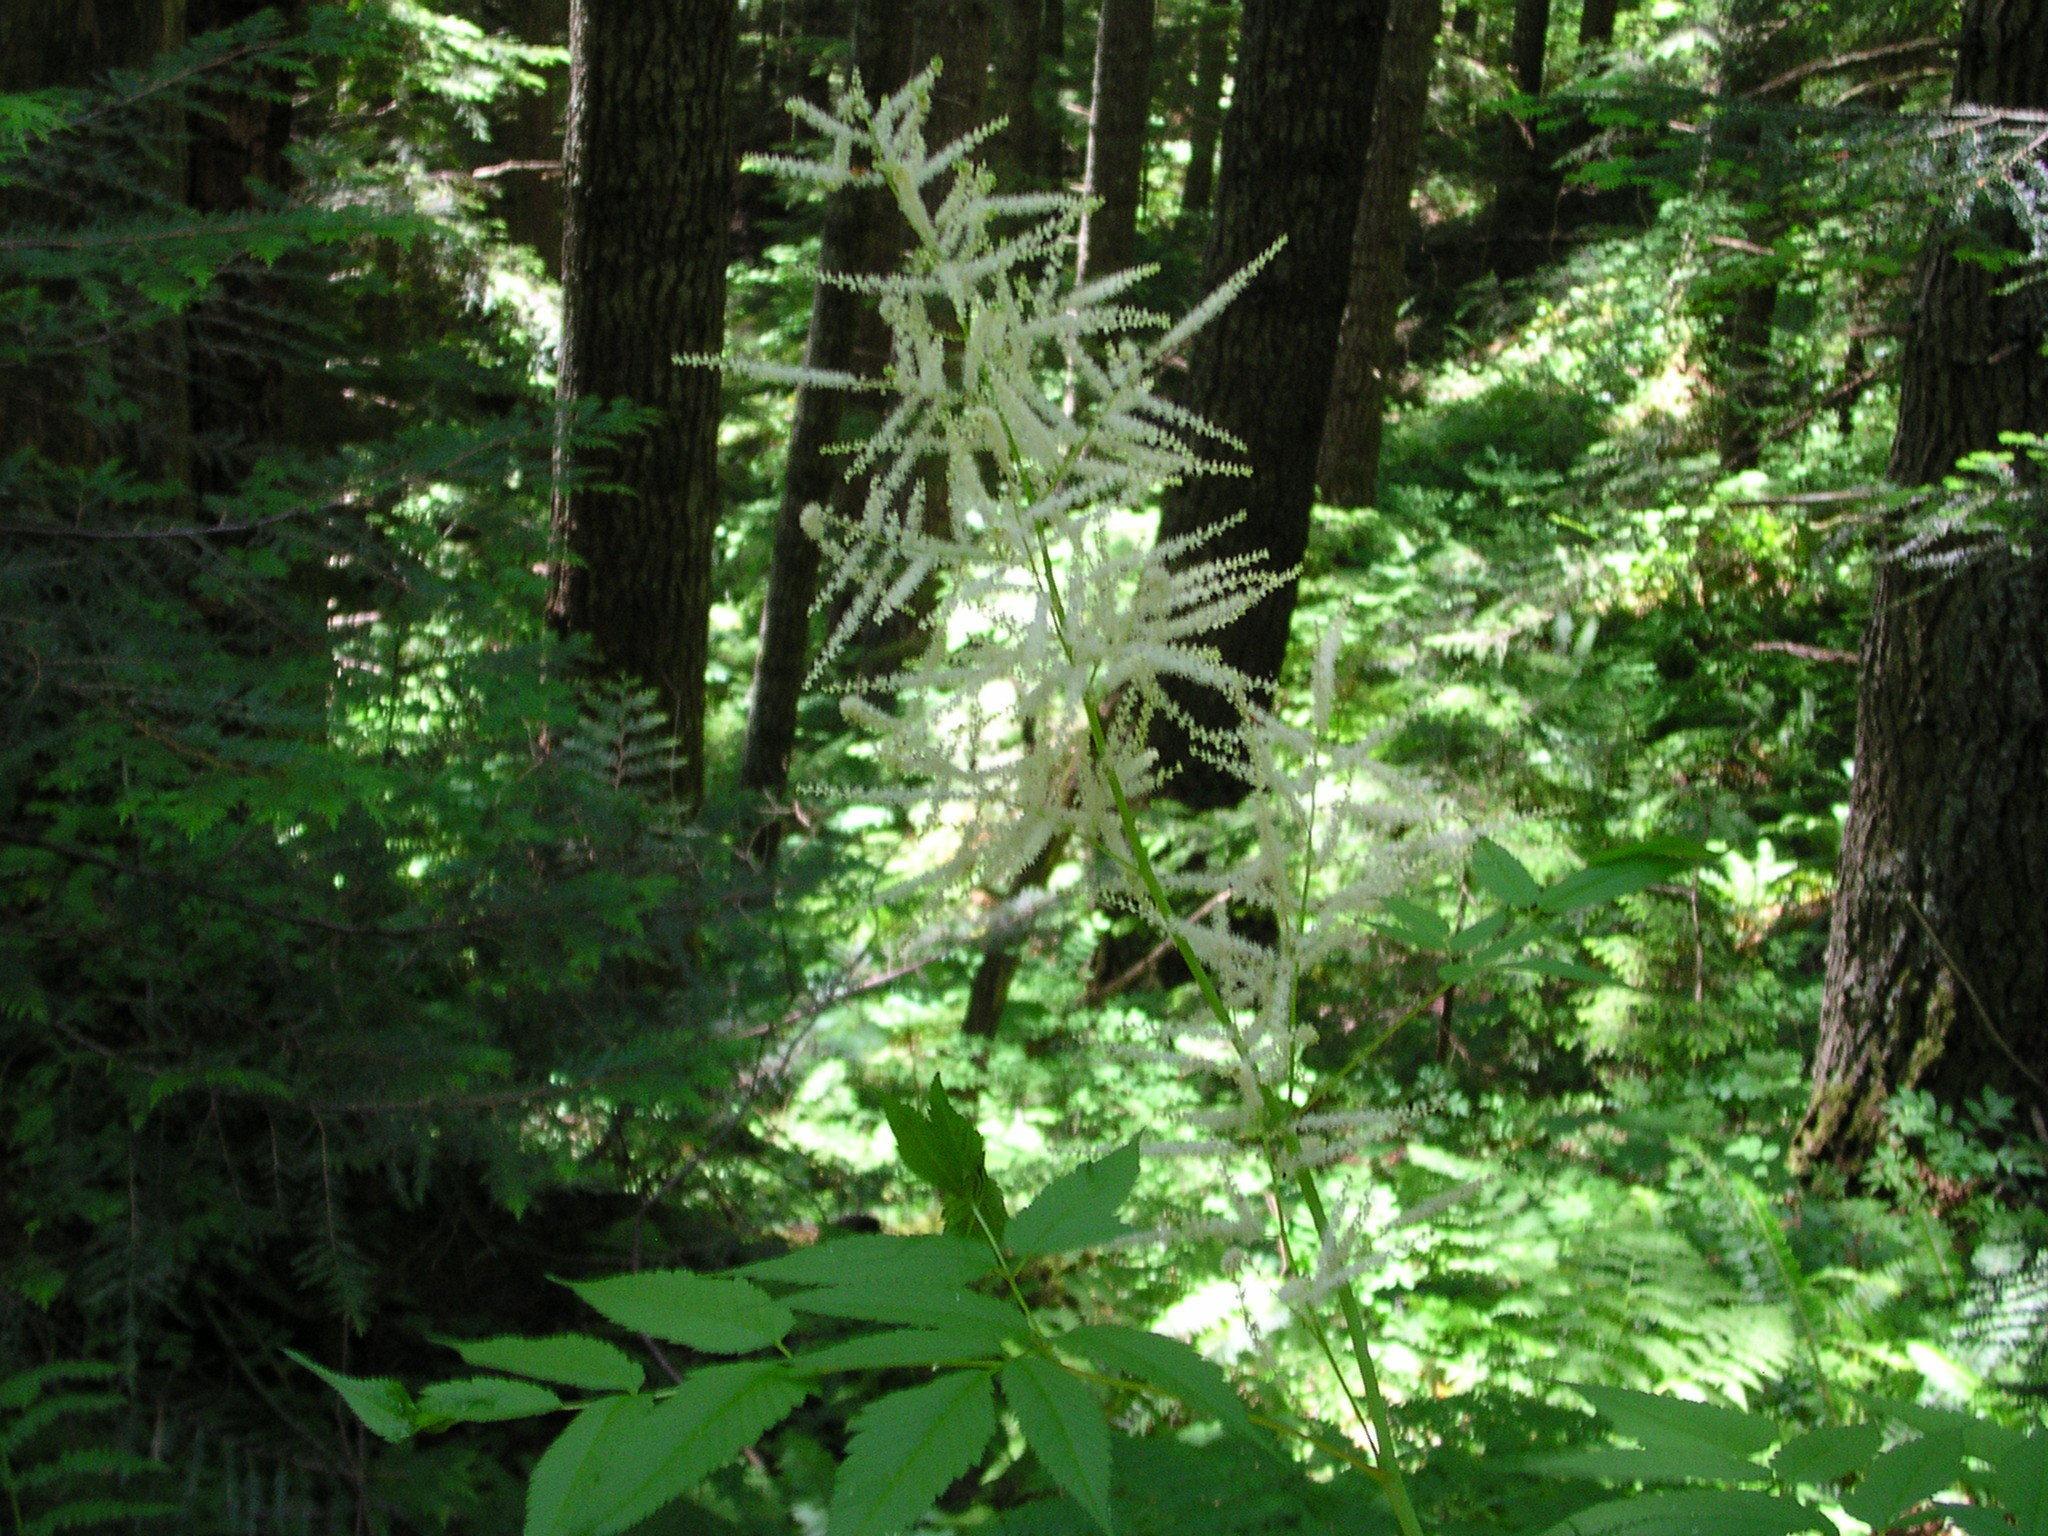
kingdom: Plantae
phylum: Tracheophyta
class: Magnoliopsida
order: Rosales
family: Rosaceae
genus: Aruncus
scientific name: Aruncus dioicus
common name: Buck's-beard
